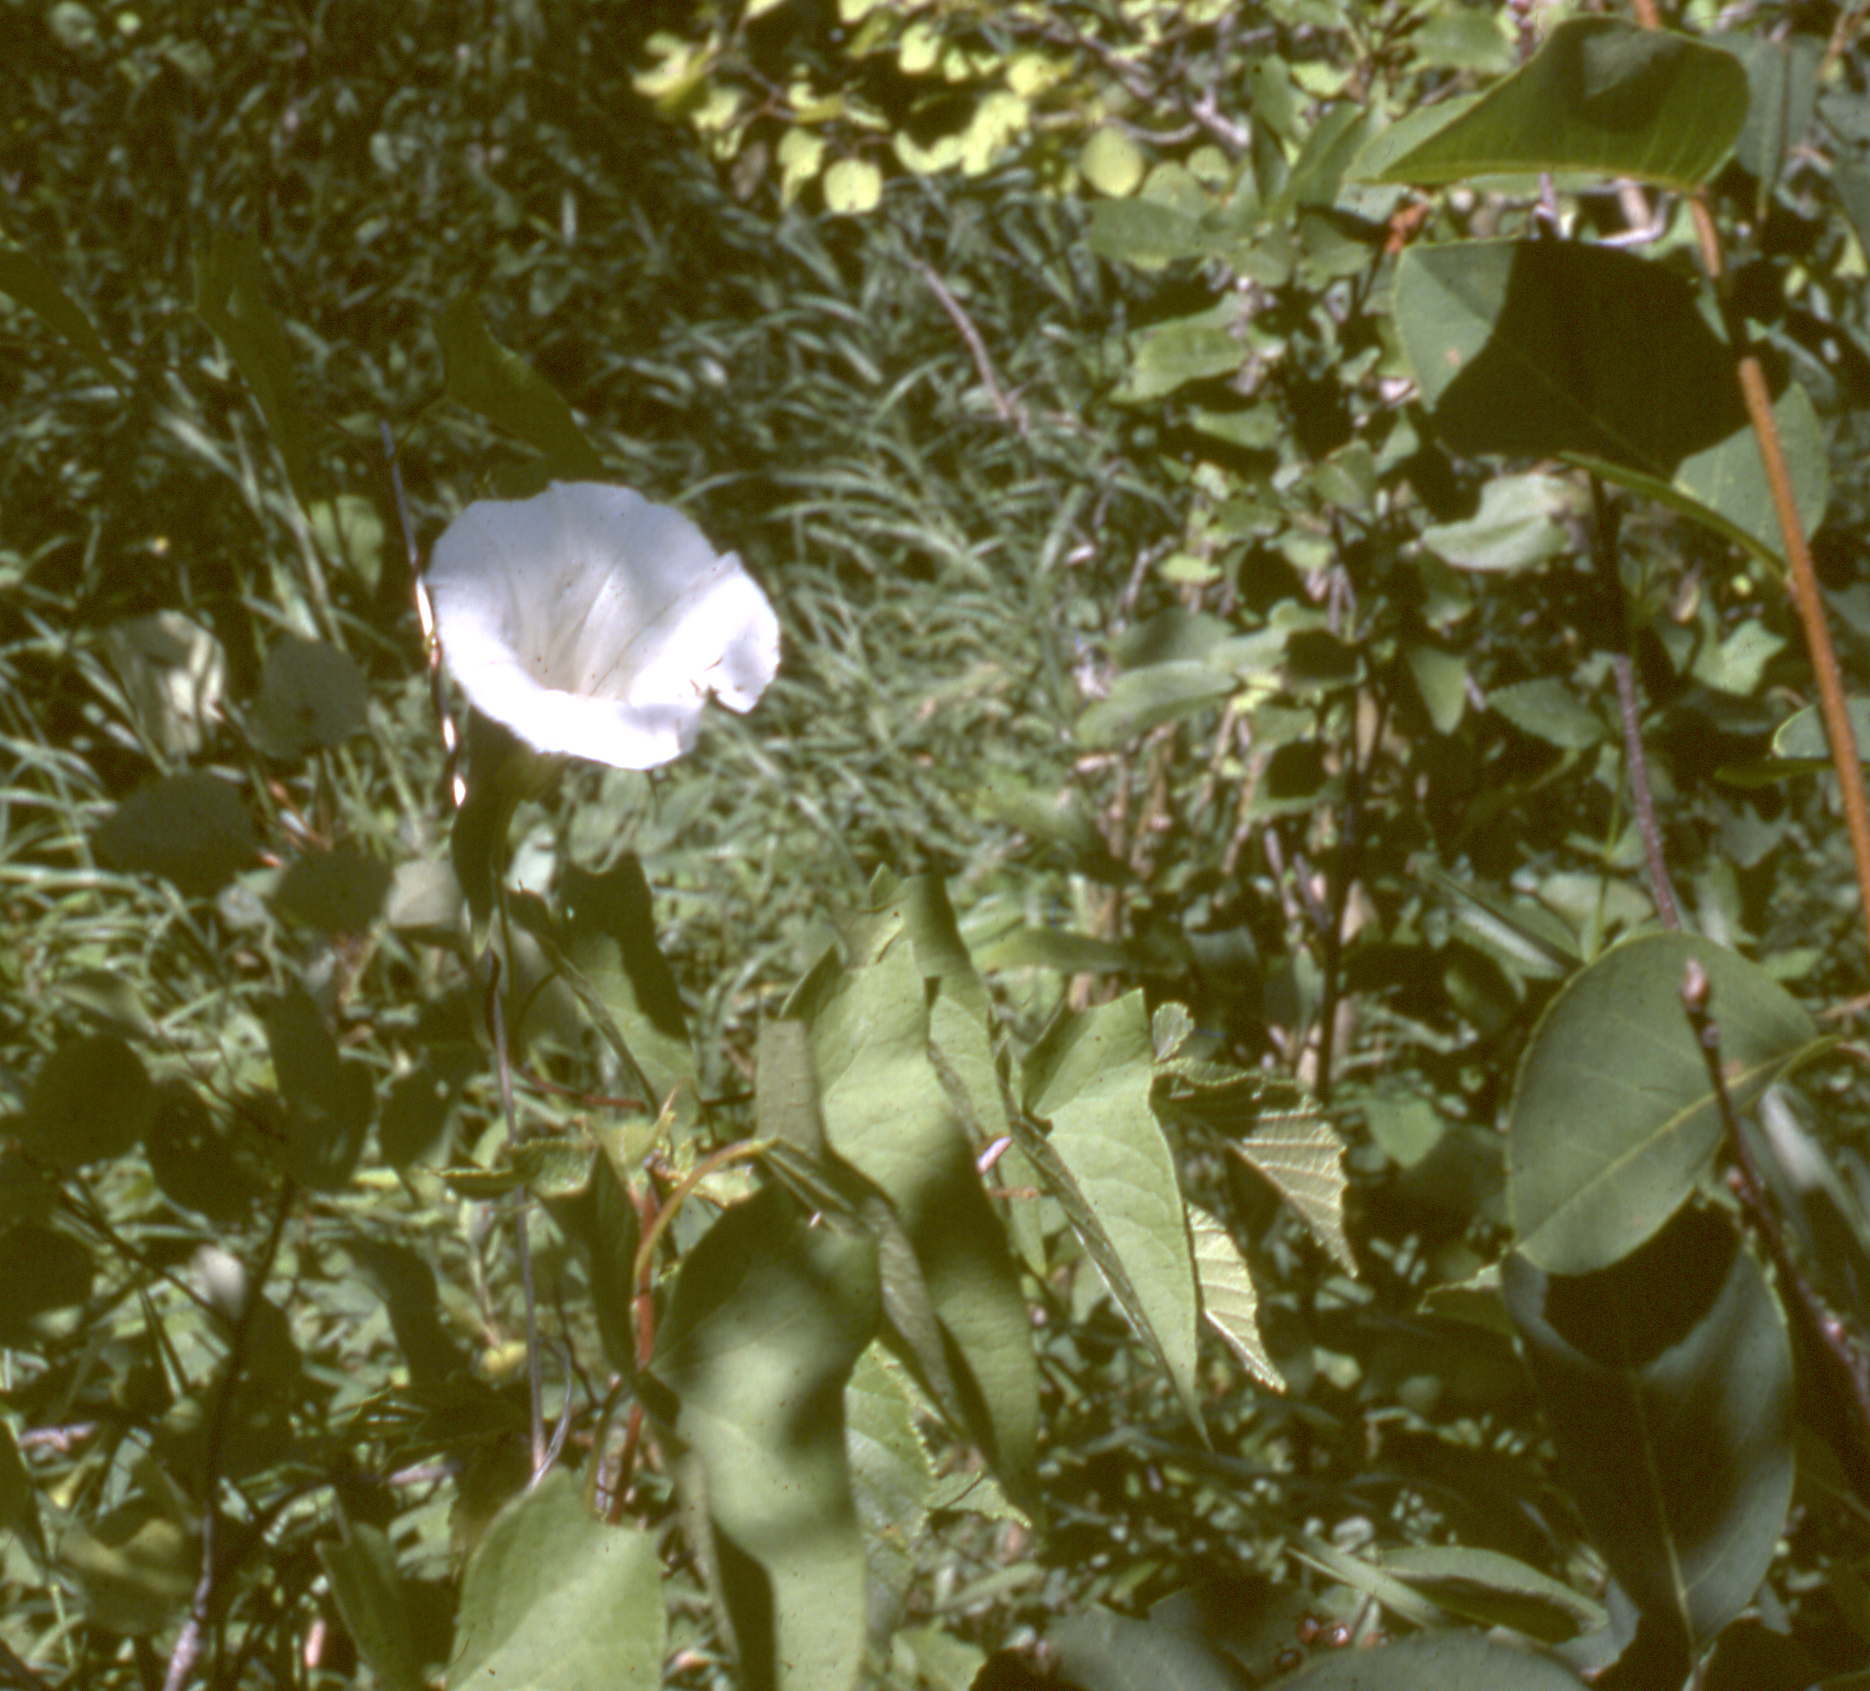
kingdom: Plantae
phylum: Tracheophyta
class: Magnoliopsida
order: Solanales
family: Convolvulaceae
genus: Calystegia
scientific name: Calystegia sepium
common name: Hedge bindweed
